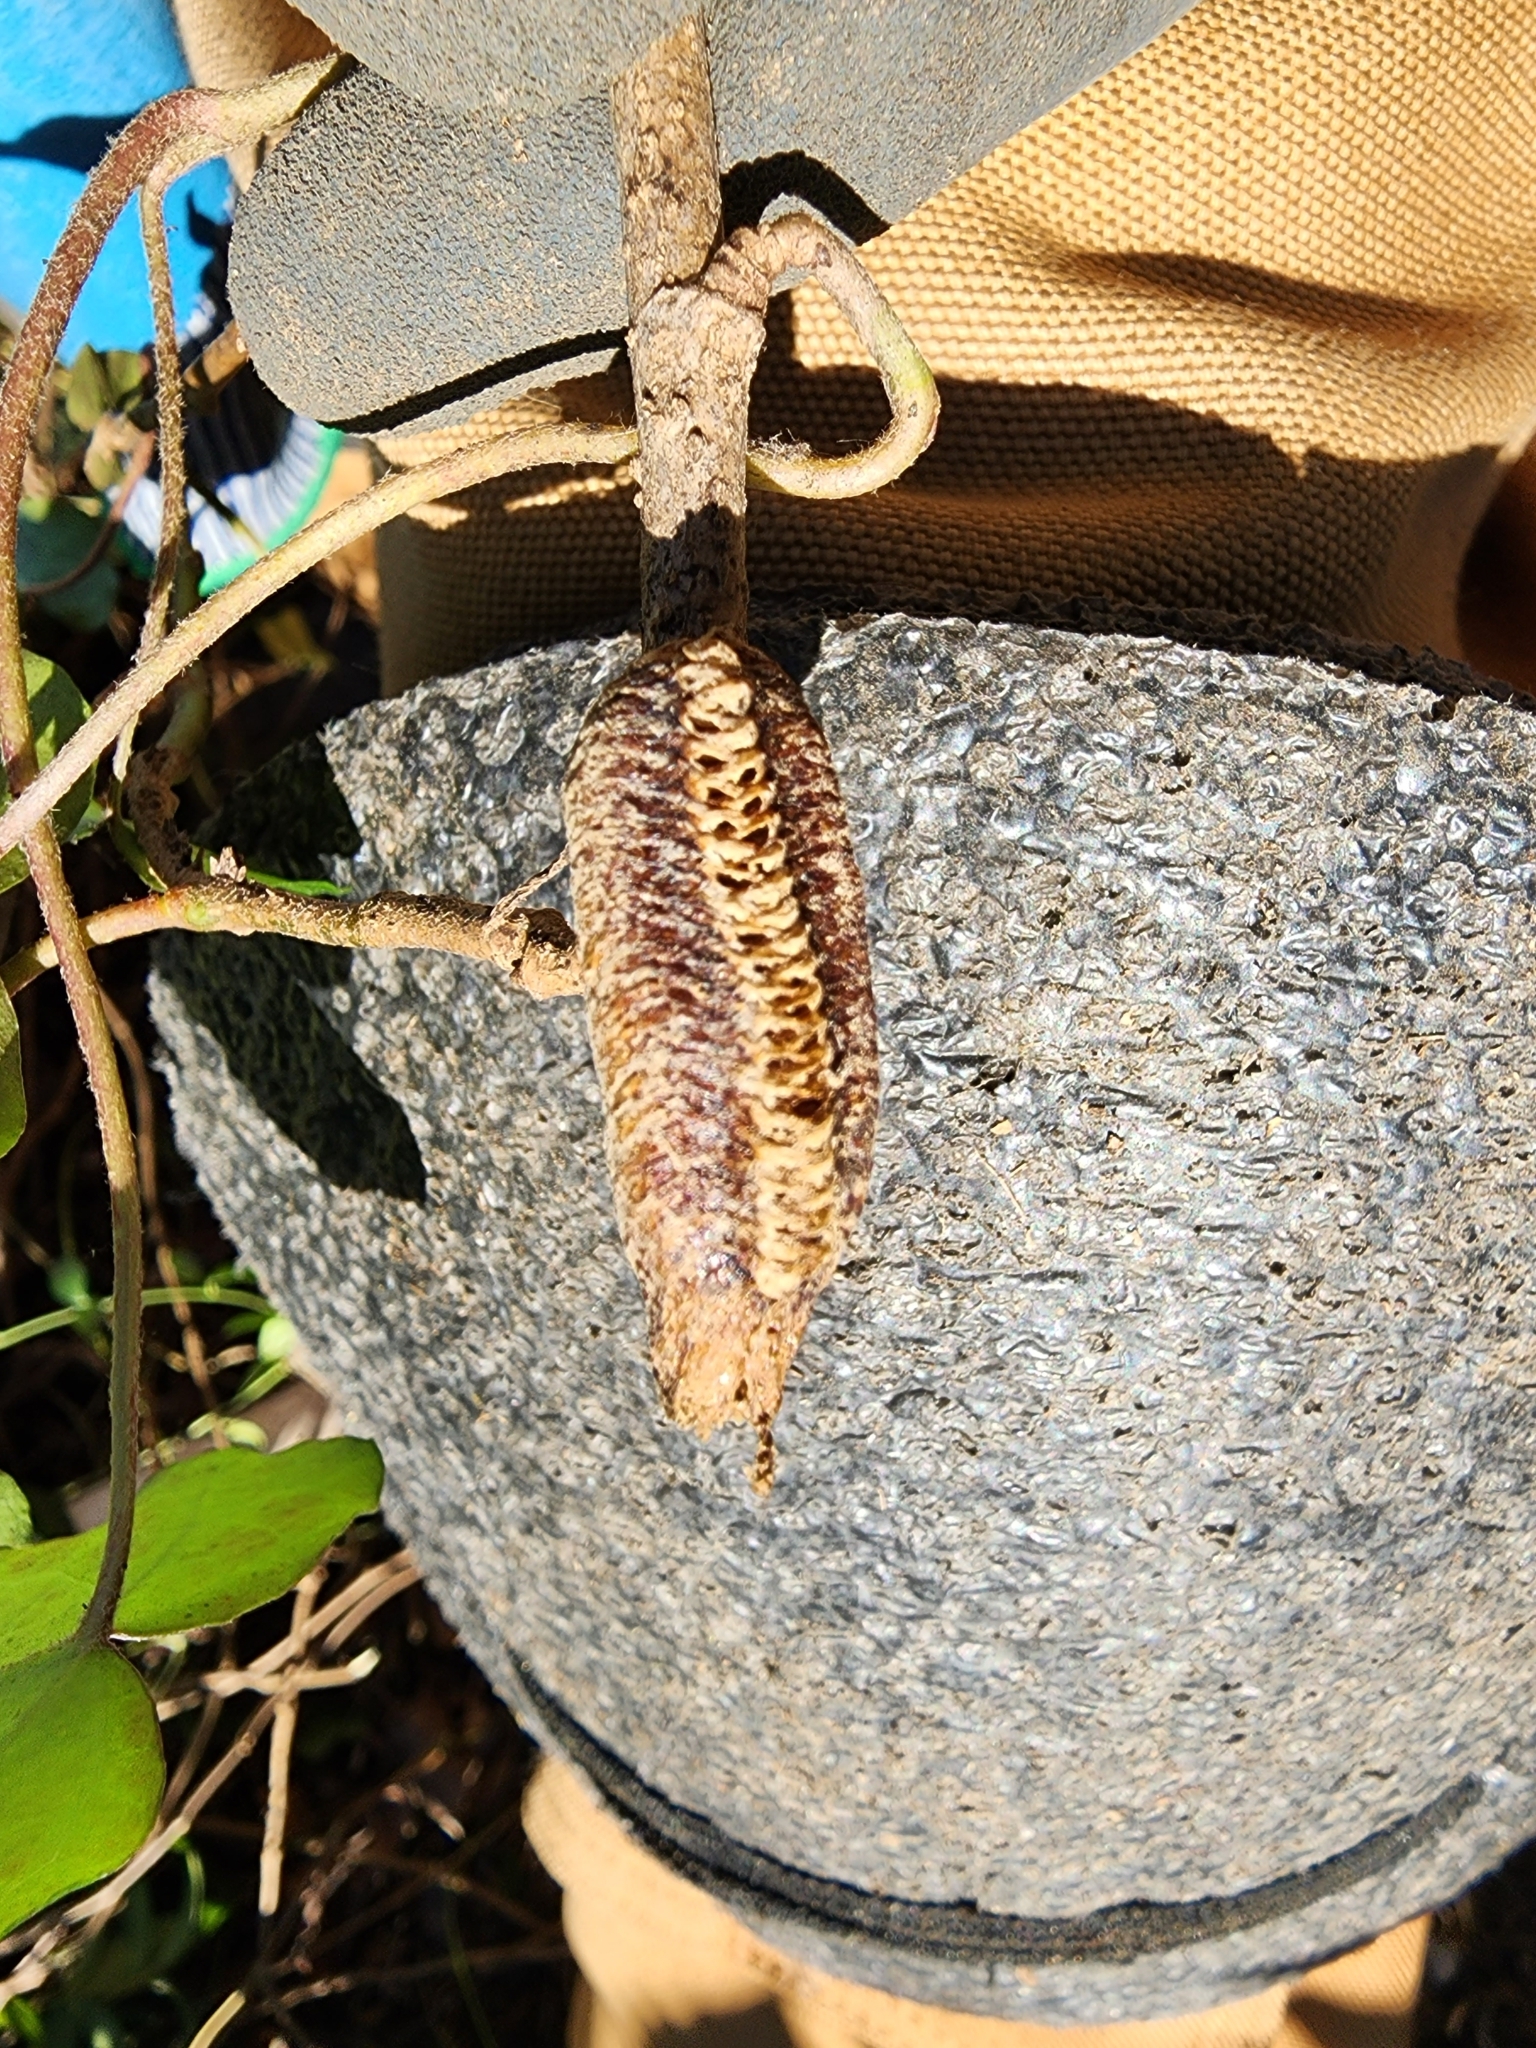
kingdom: Animalia
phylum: Arthropoda
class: Insecta
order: Mantodea
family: Mantidae
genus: Stagmomantis
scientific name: Stagmomantis carolina
